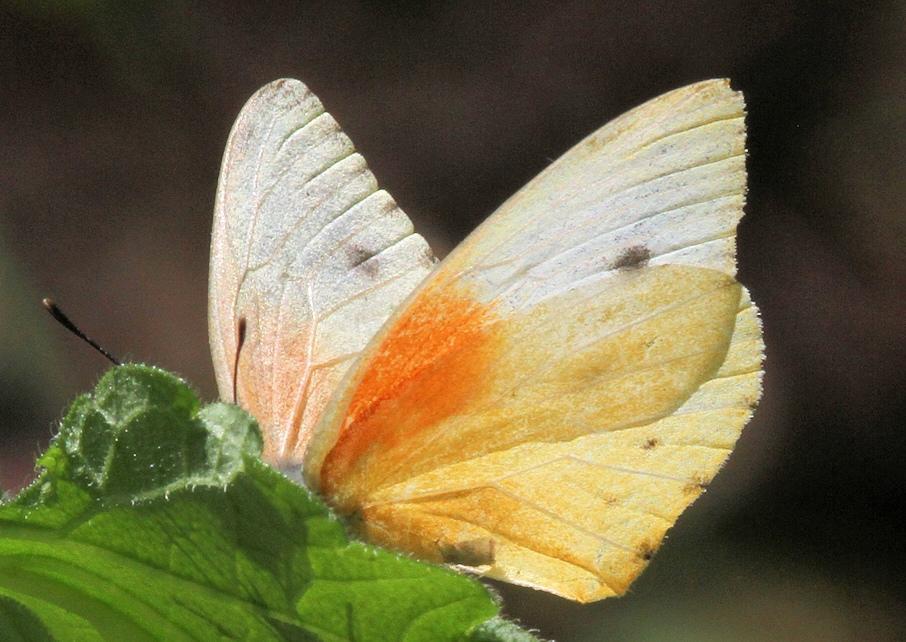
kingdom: Animalia
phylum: Arthropoda
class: Insecta
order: Lepidoptera
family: Pieridae
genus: Dixeia
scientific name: Dixeia pigea
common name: Ant-heap small white
